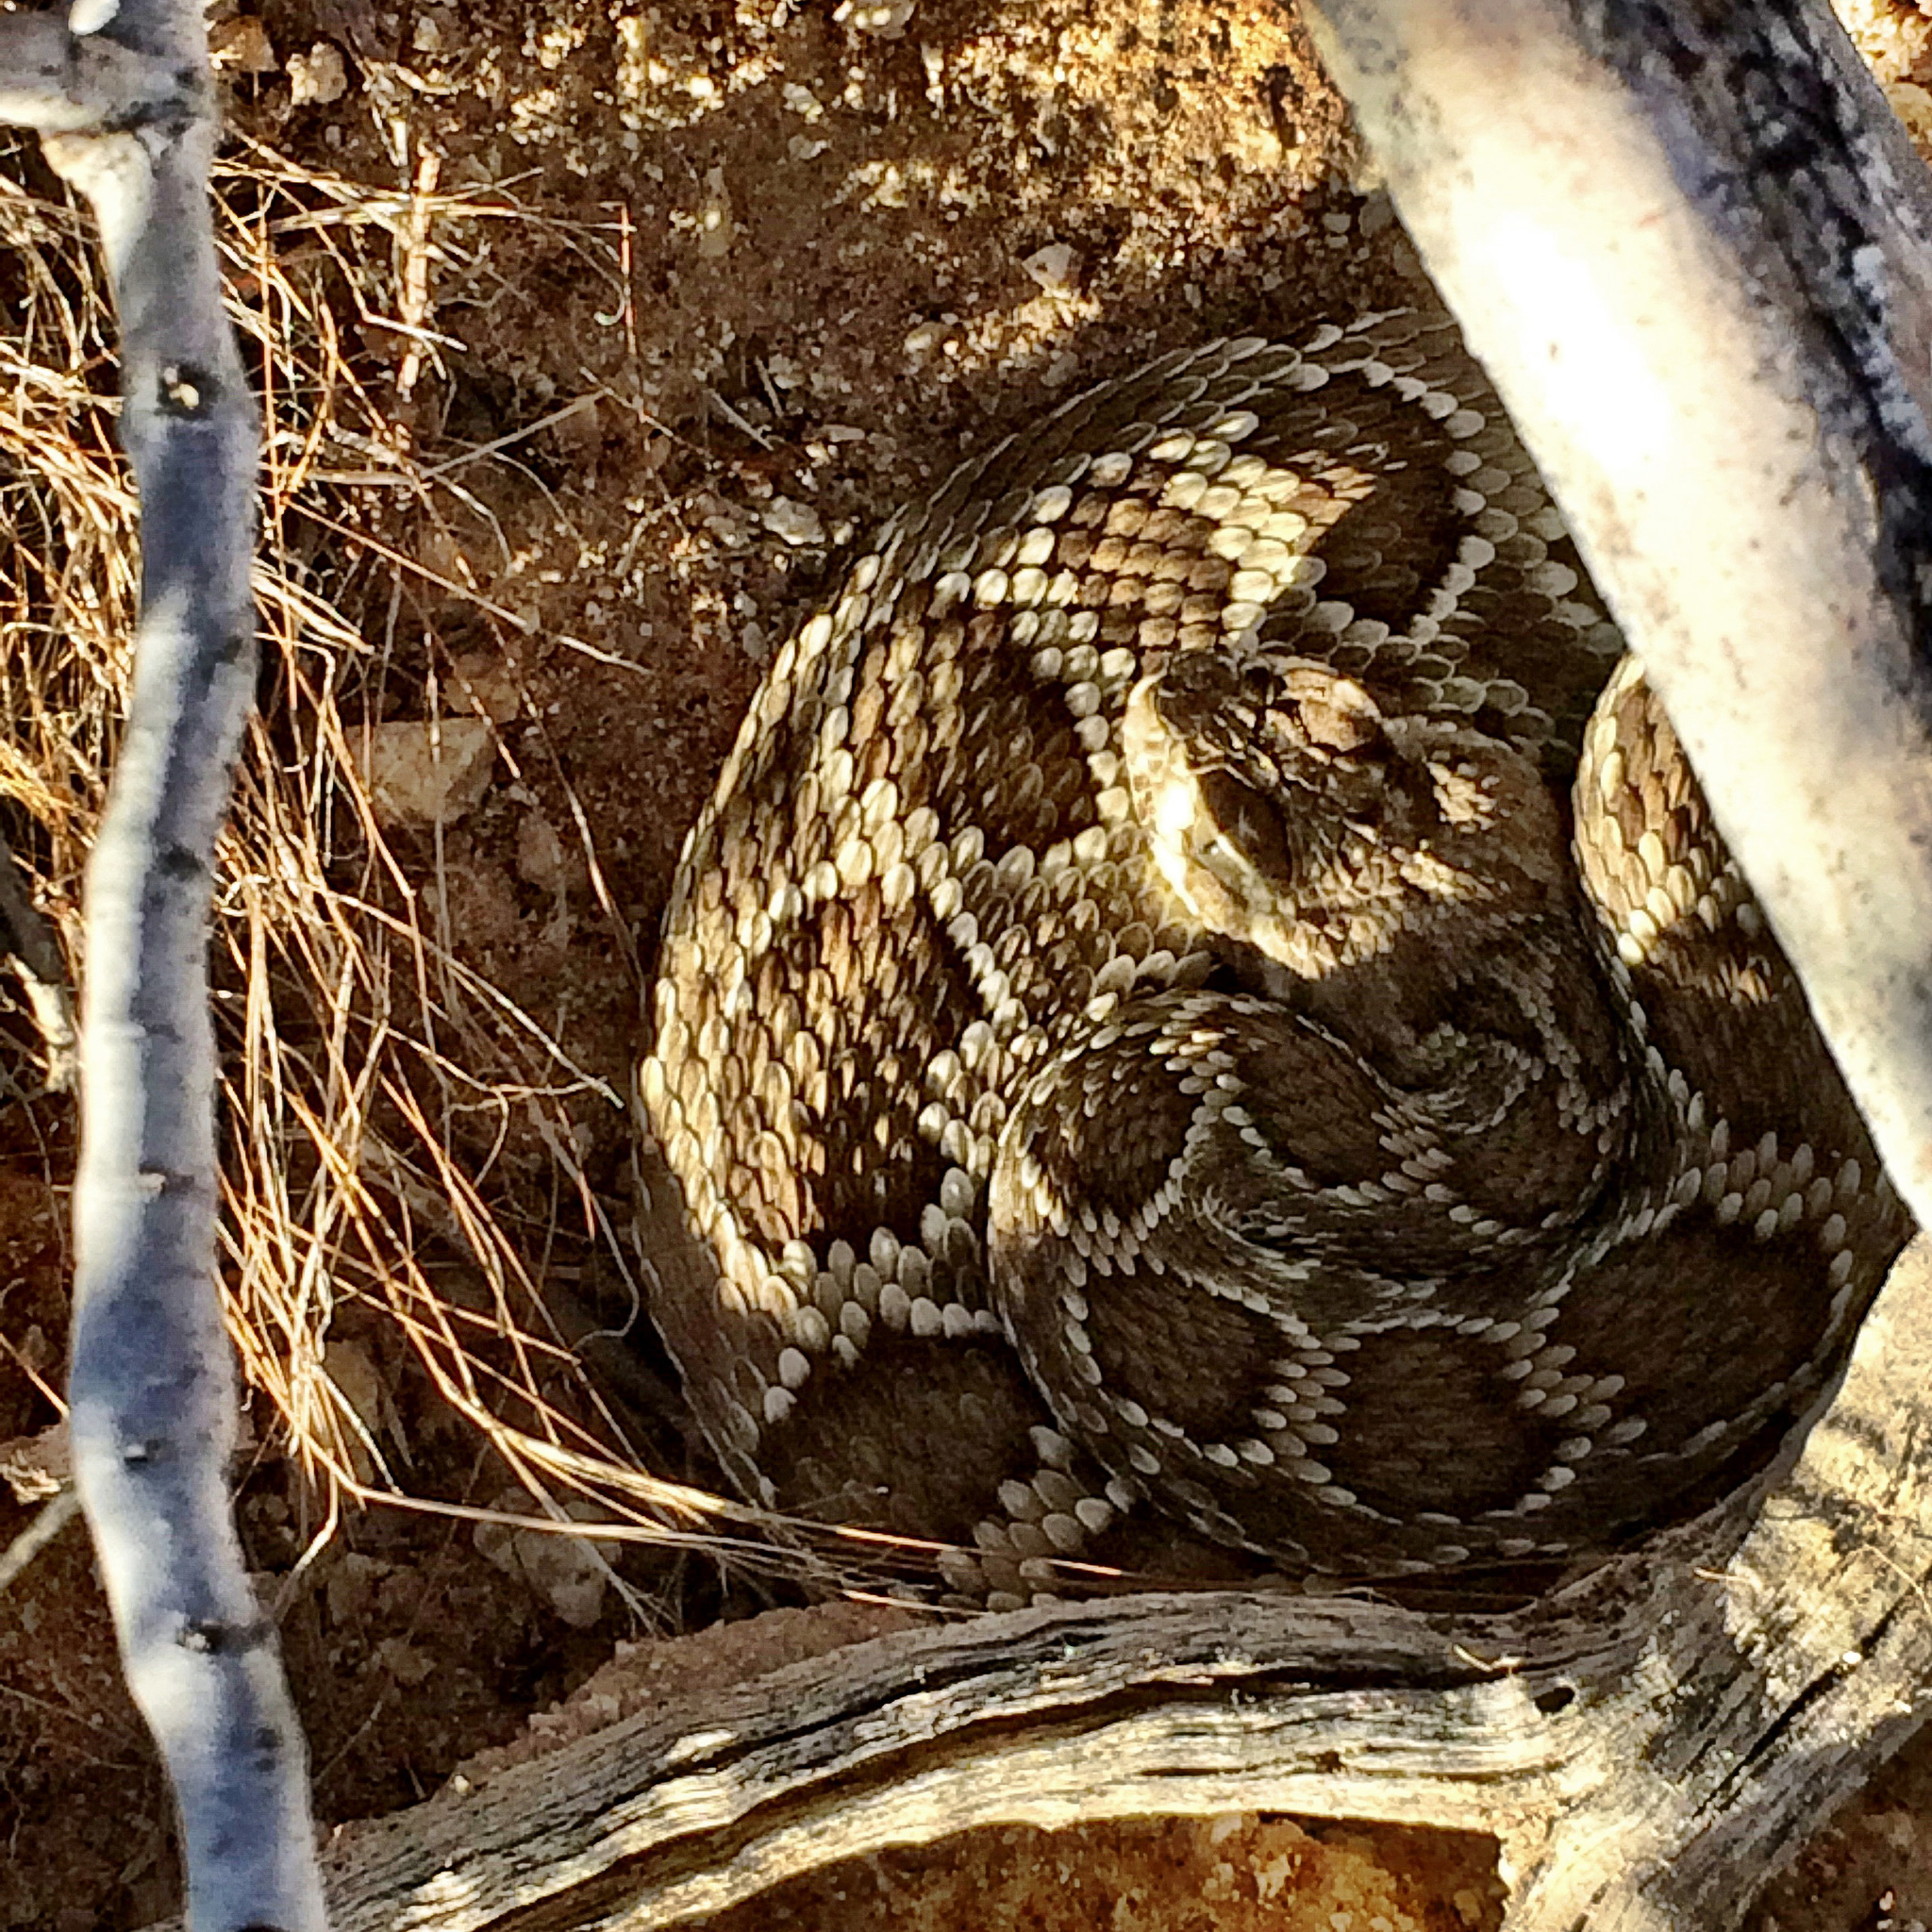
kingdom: Animalia
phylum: Chordata
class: Squamata
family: Viperidae
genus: Crotalus
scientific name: Crotalus scutulatus
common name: Scutulatus
